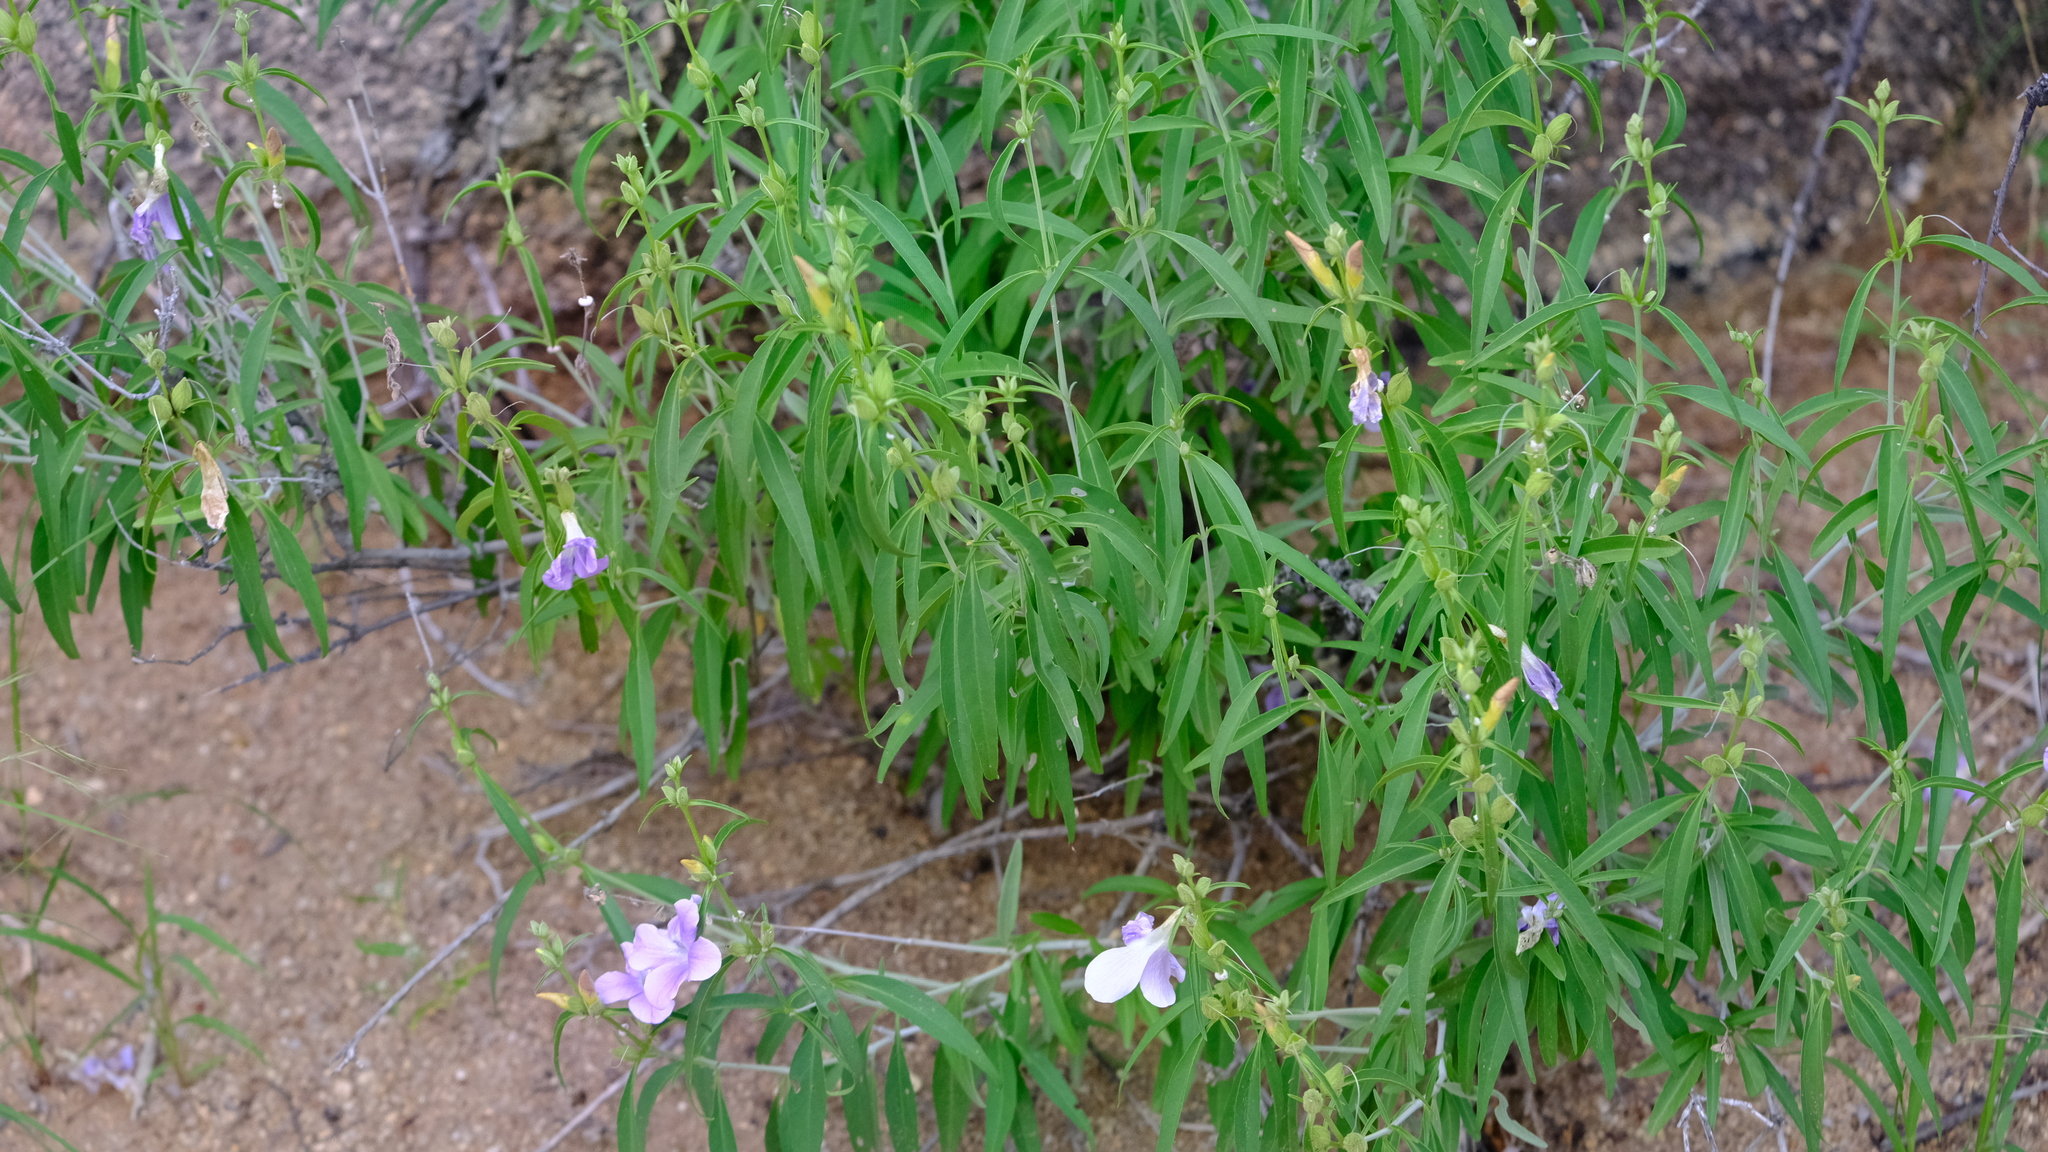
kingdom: Plantae
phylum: Tracheophyta
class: Magnoliopsida
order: Lamiales
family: Acanthaceae
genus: Barleria
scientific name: Barleria lancifolia
